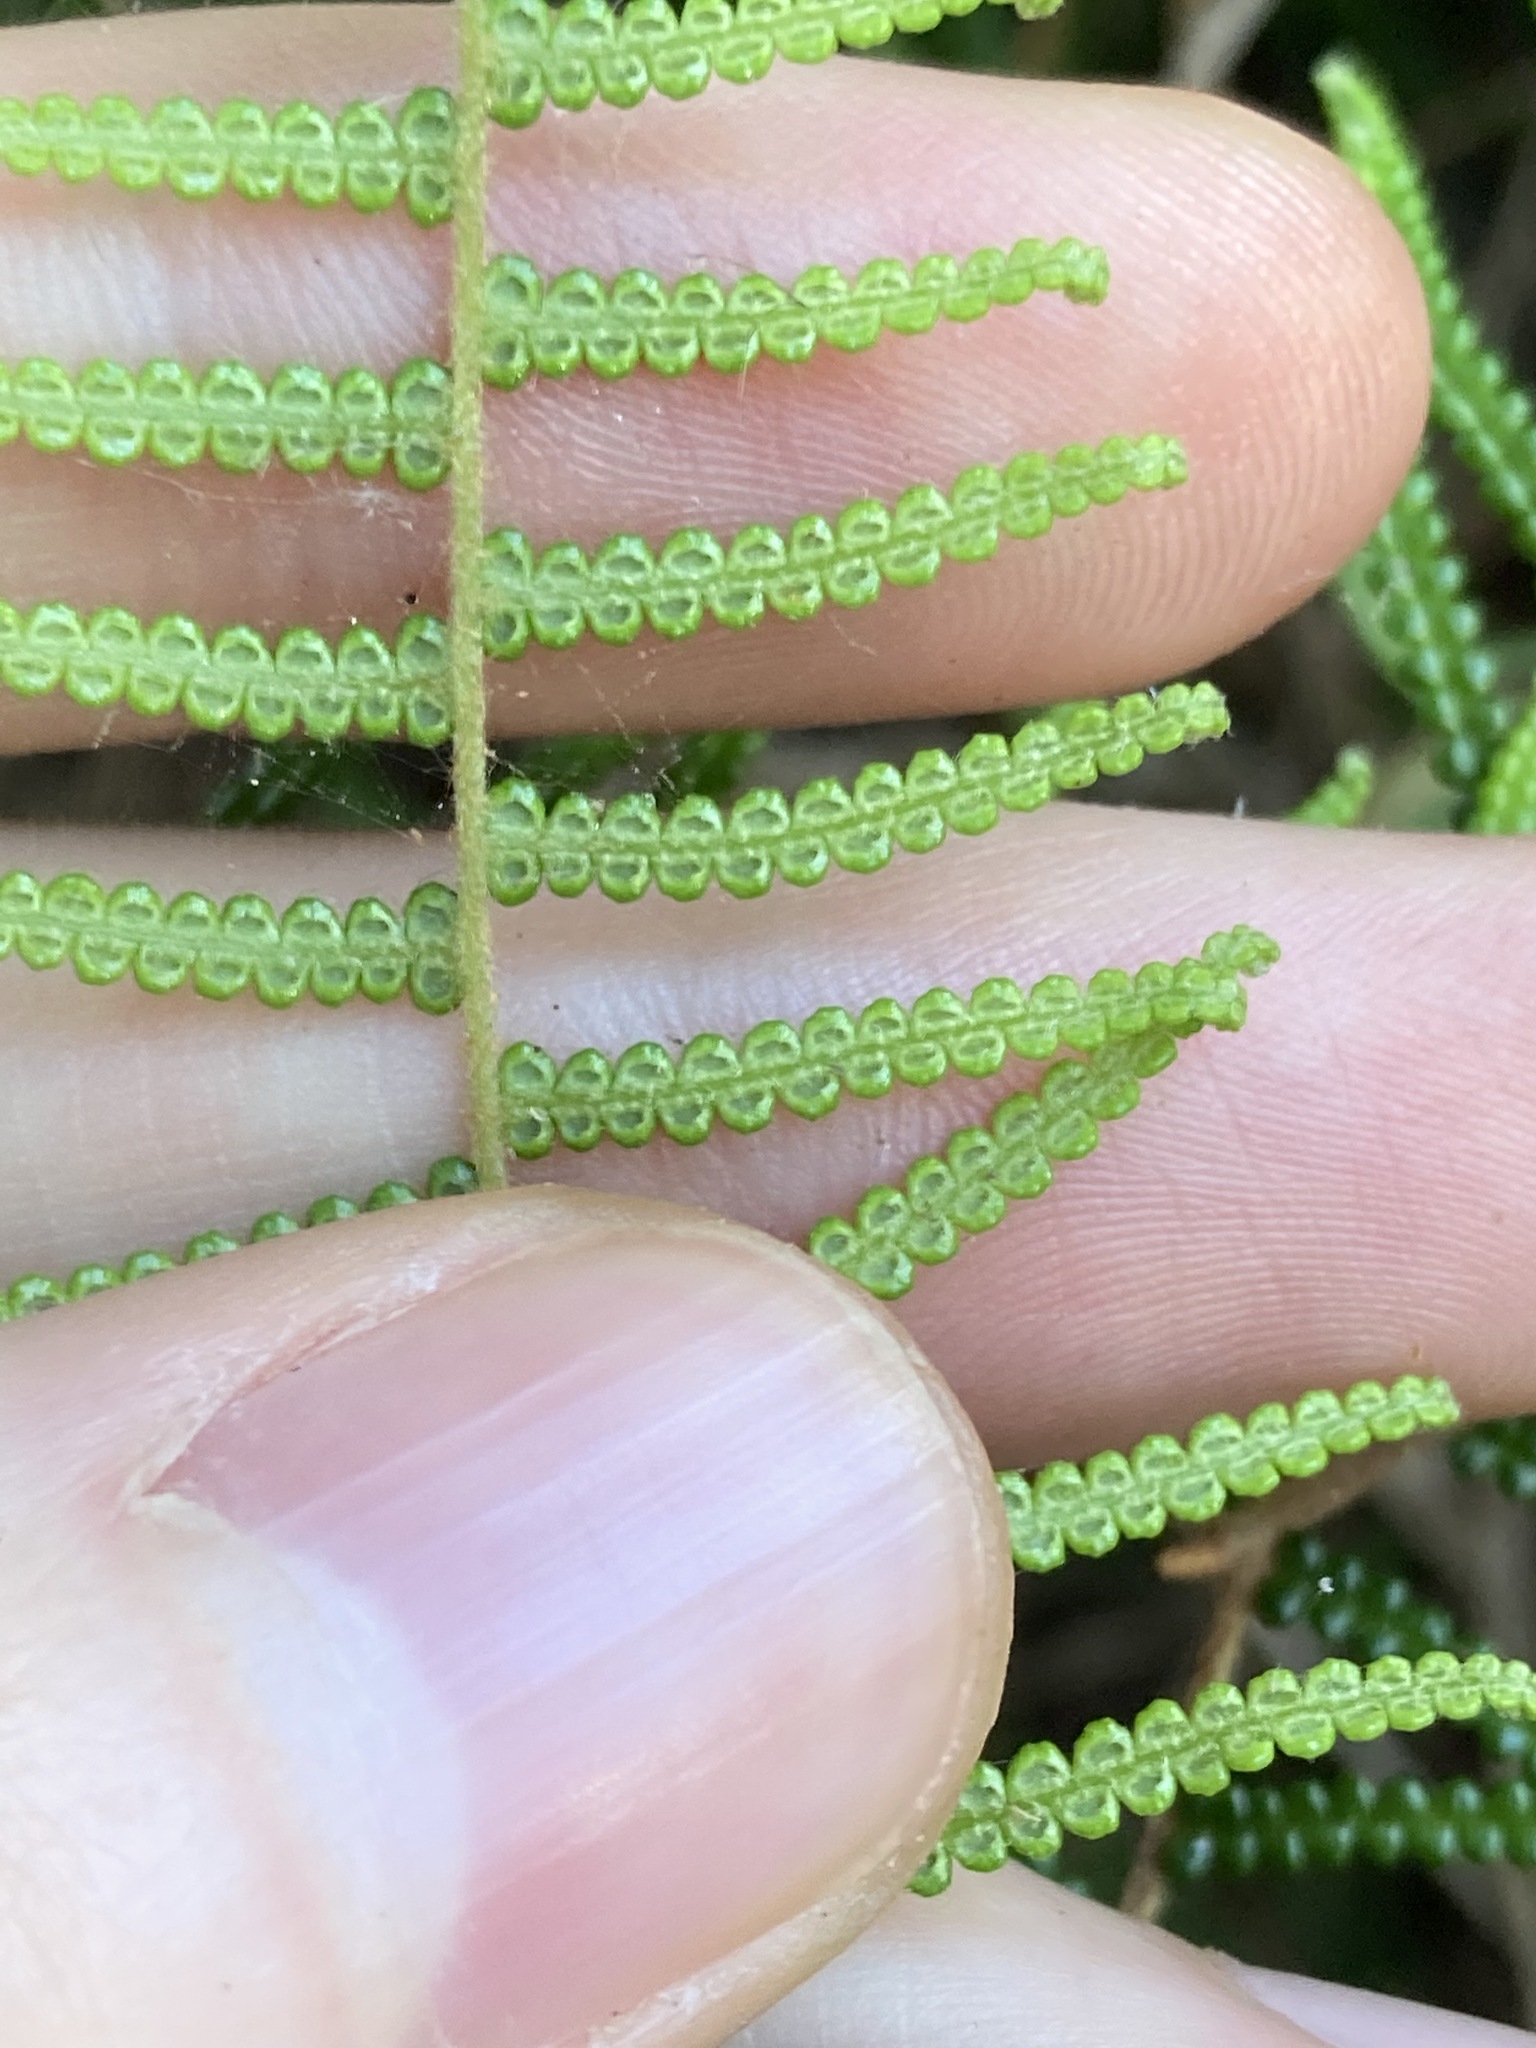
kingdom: Plantae
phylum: Tracheophyta
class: Polypodiopsida
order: Gleicheniales
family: Gleicheniaceae
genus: Gleichenia
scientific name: Gleichenia dicarpa
